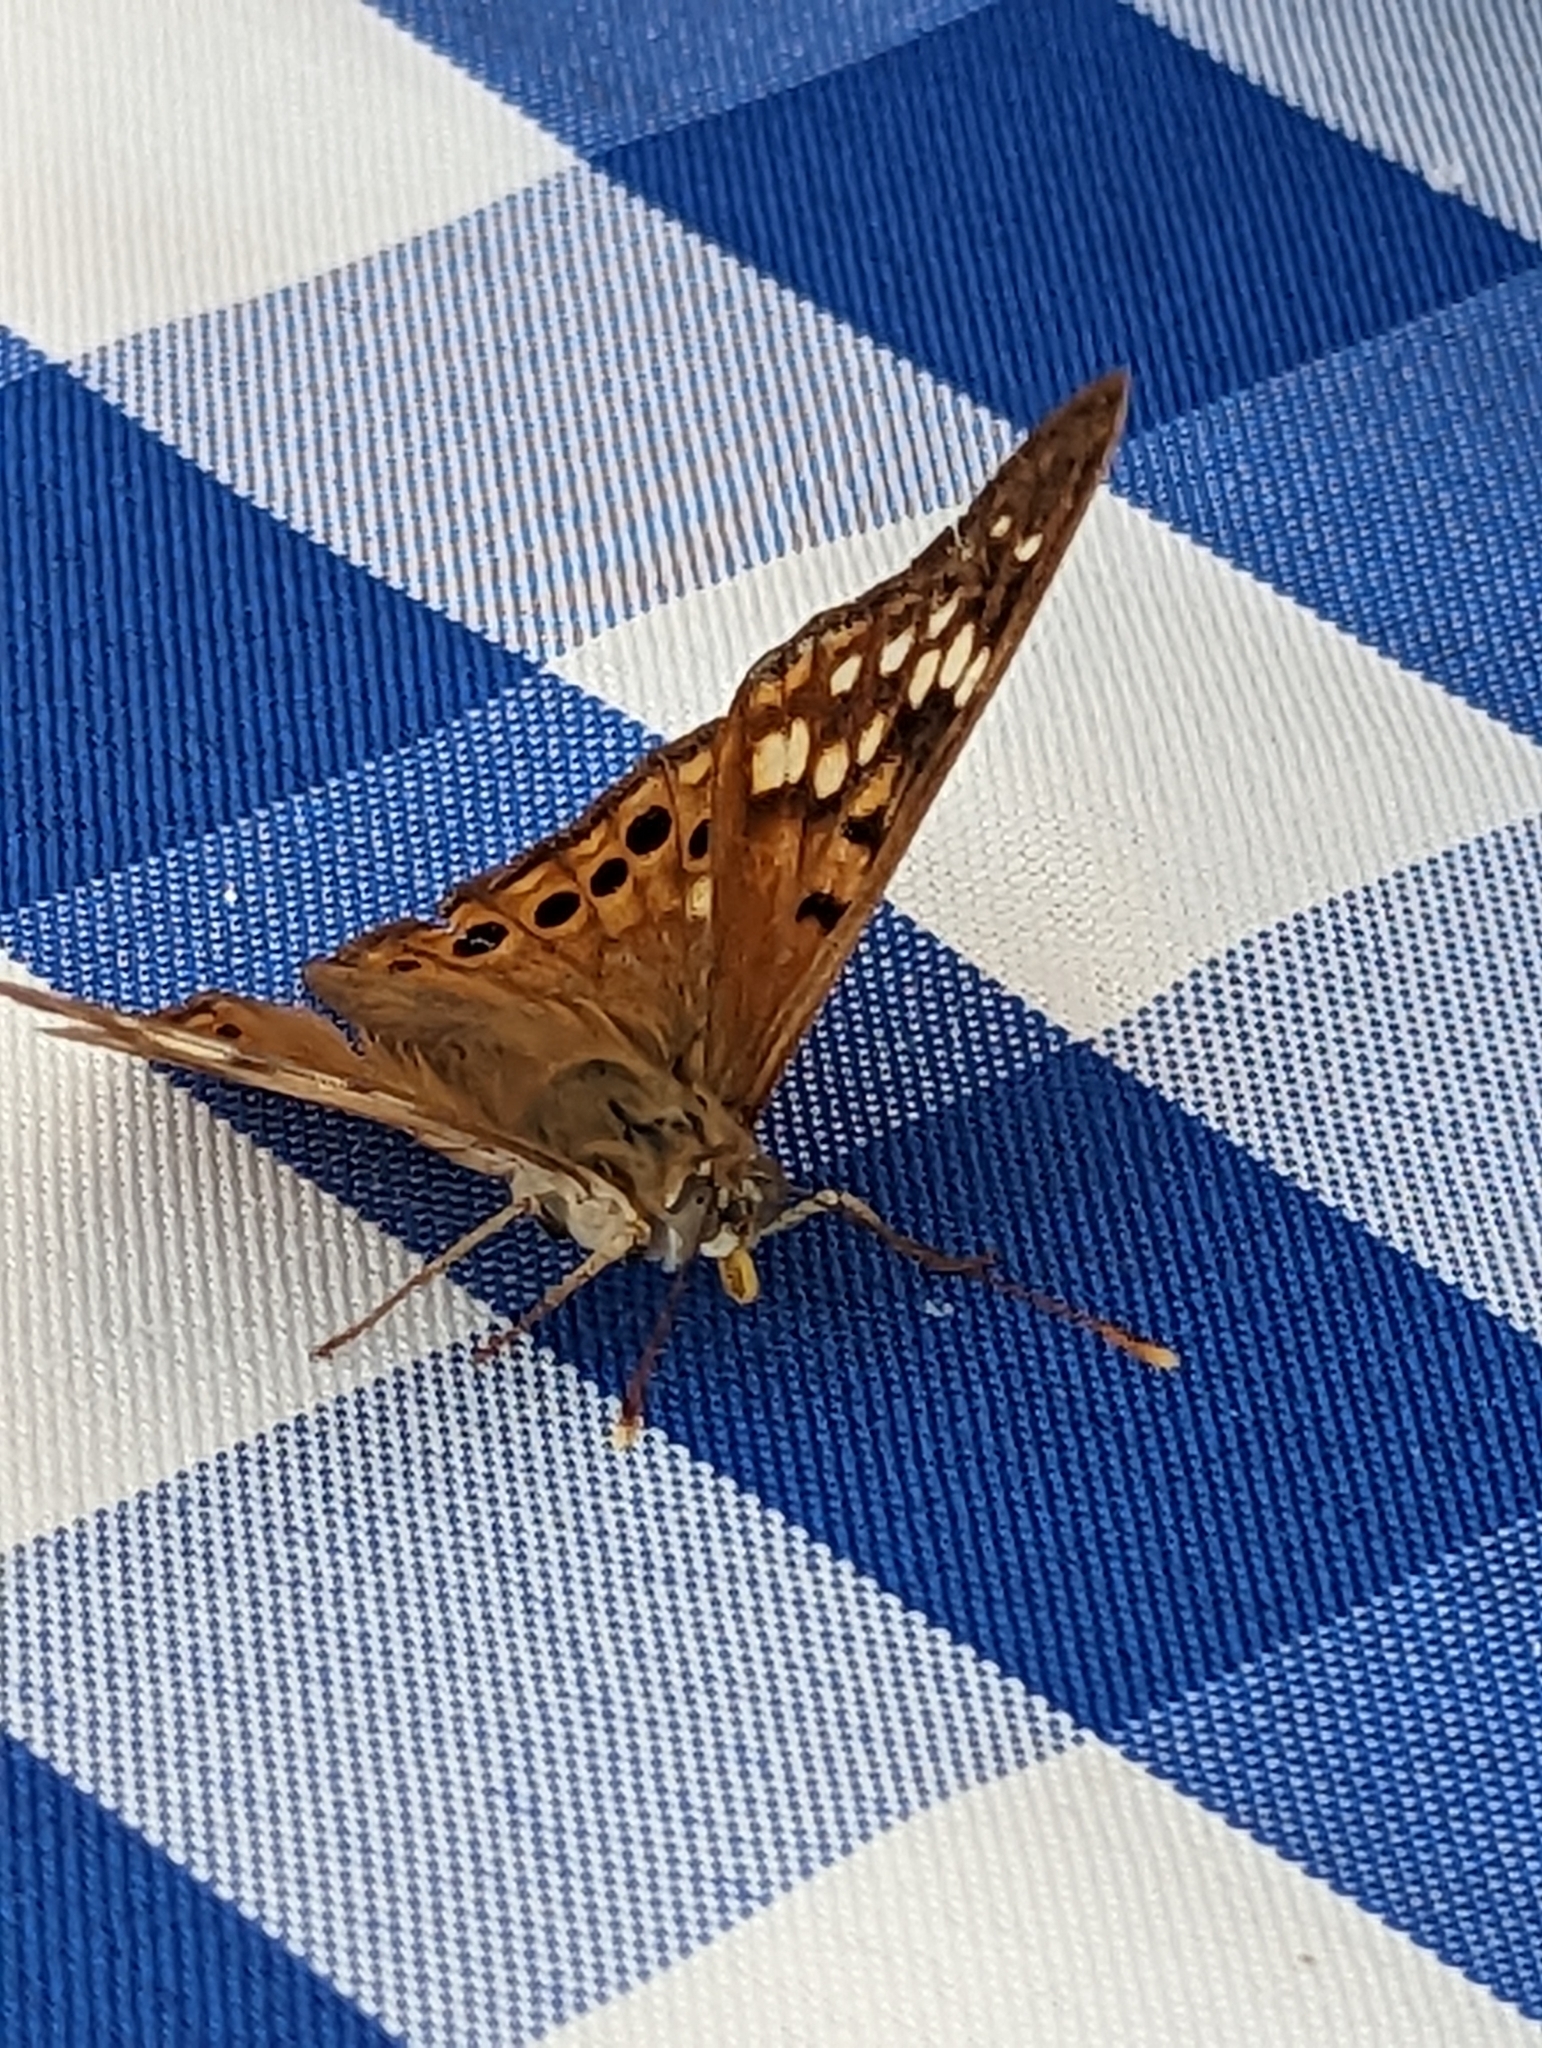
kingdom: Animalia
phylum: Arthropoda
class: Insecta
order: Lepidoptera
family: Nymphalidae
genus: Asterocampa
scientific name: Asterocampa clyton
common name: Tawny emperor
